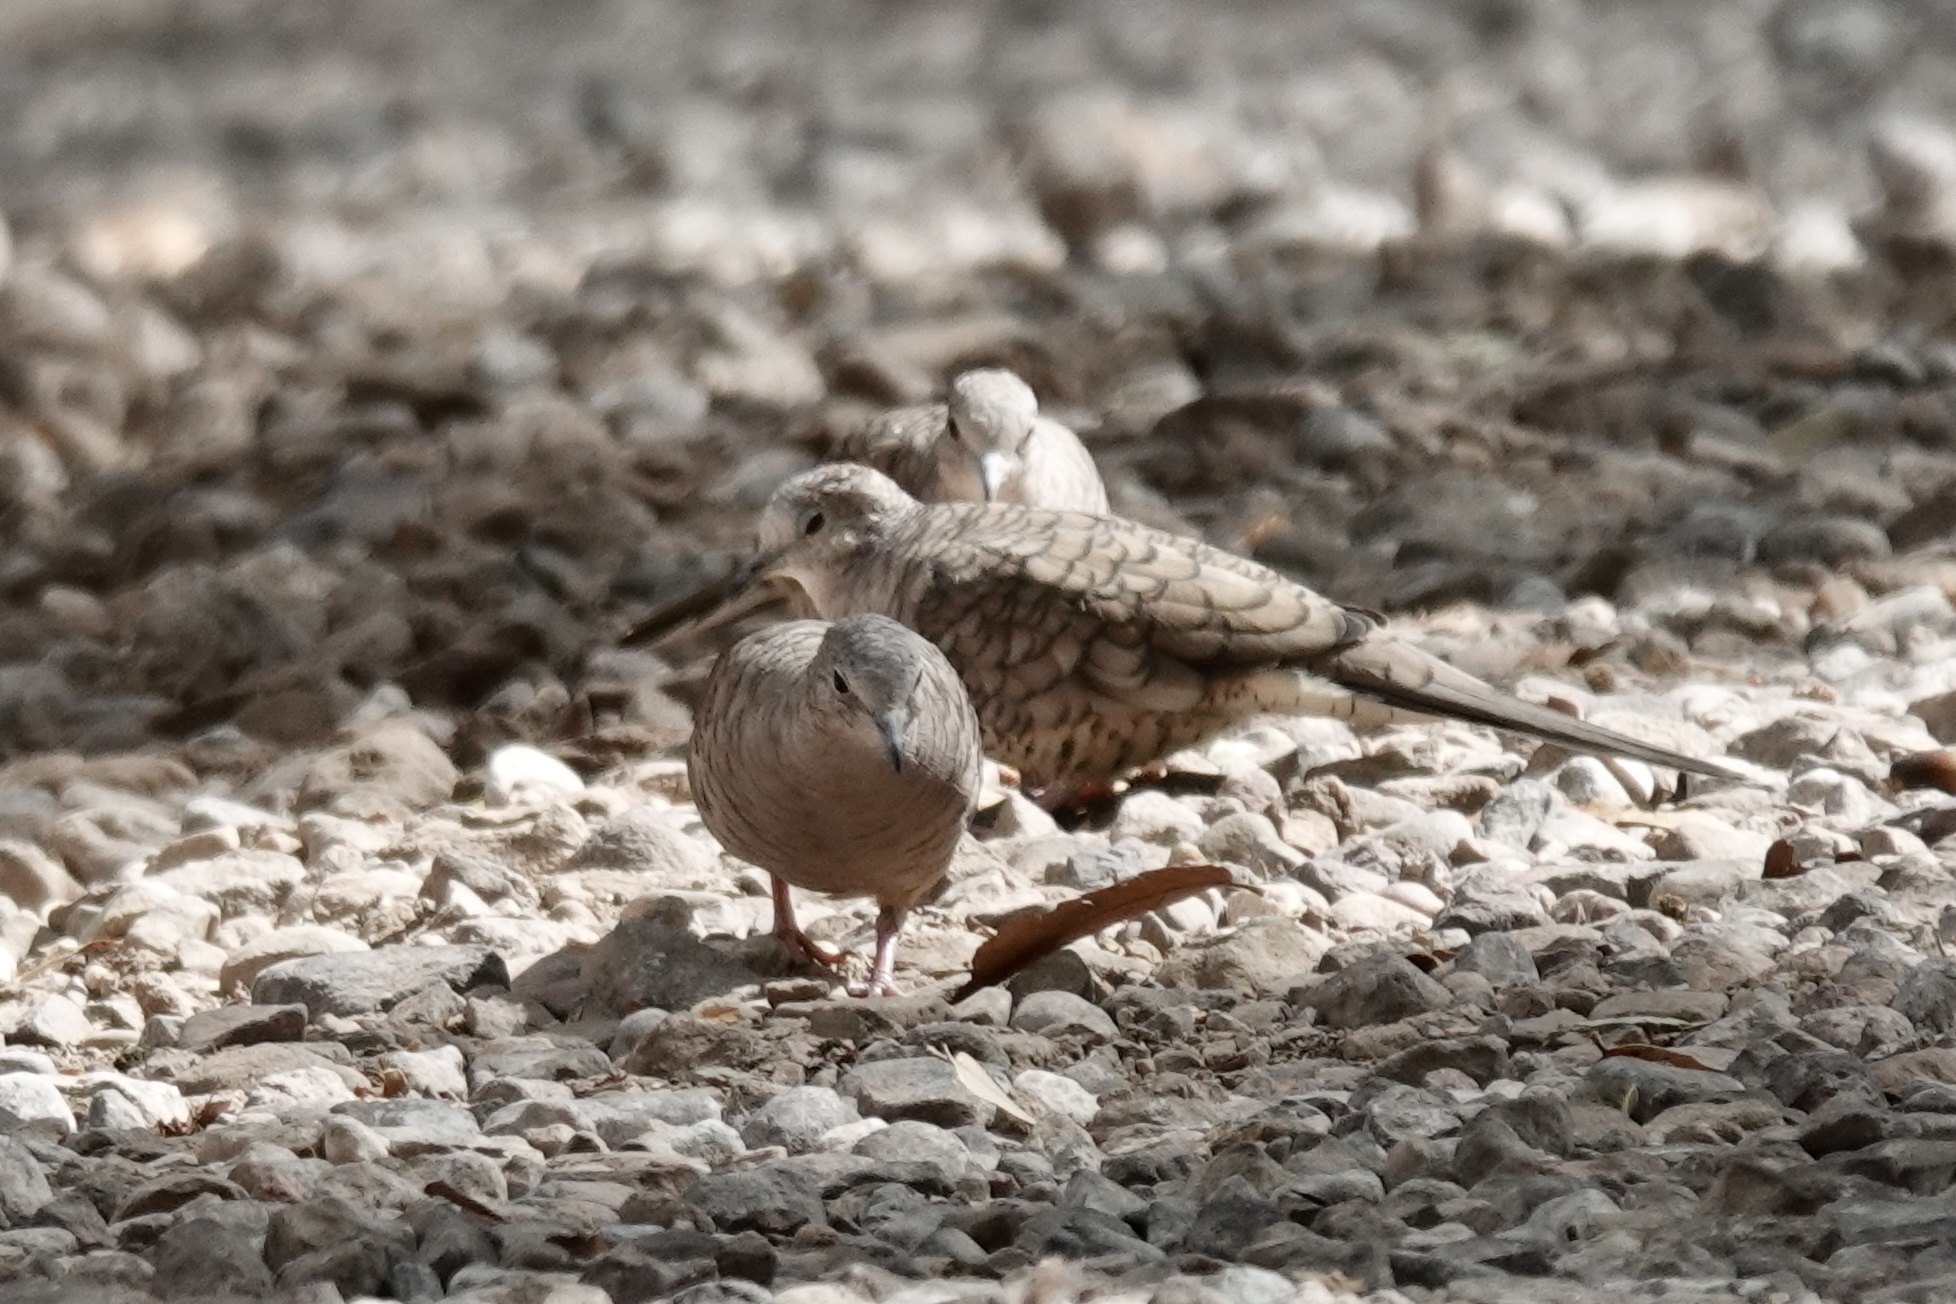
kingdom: Animalia
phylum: Chordata
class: Aves
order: Columbiformes
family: Columbidae
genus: Columbina
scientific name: Columbina inca
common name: Inca dove
